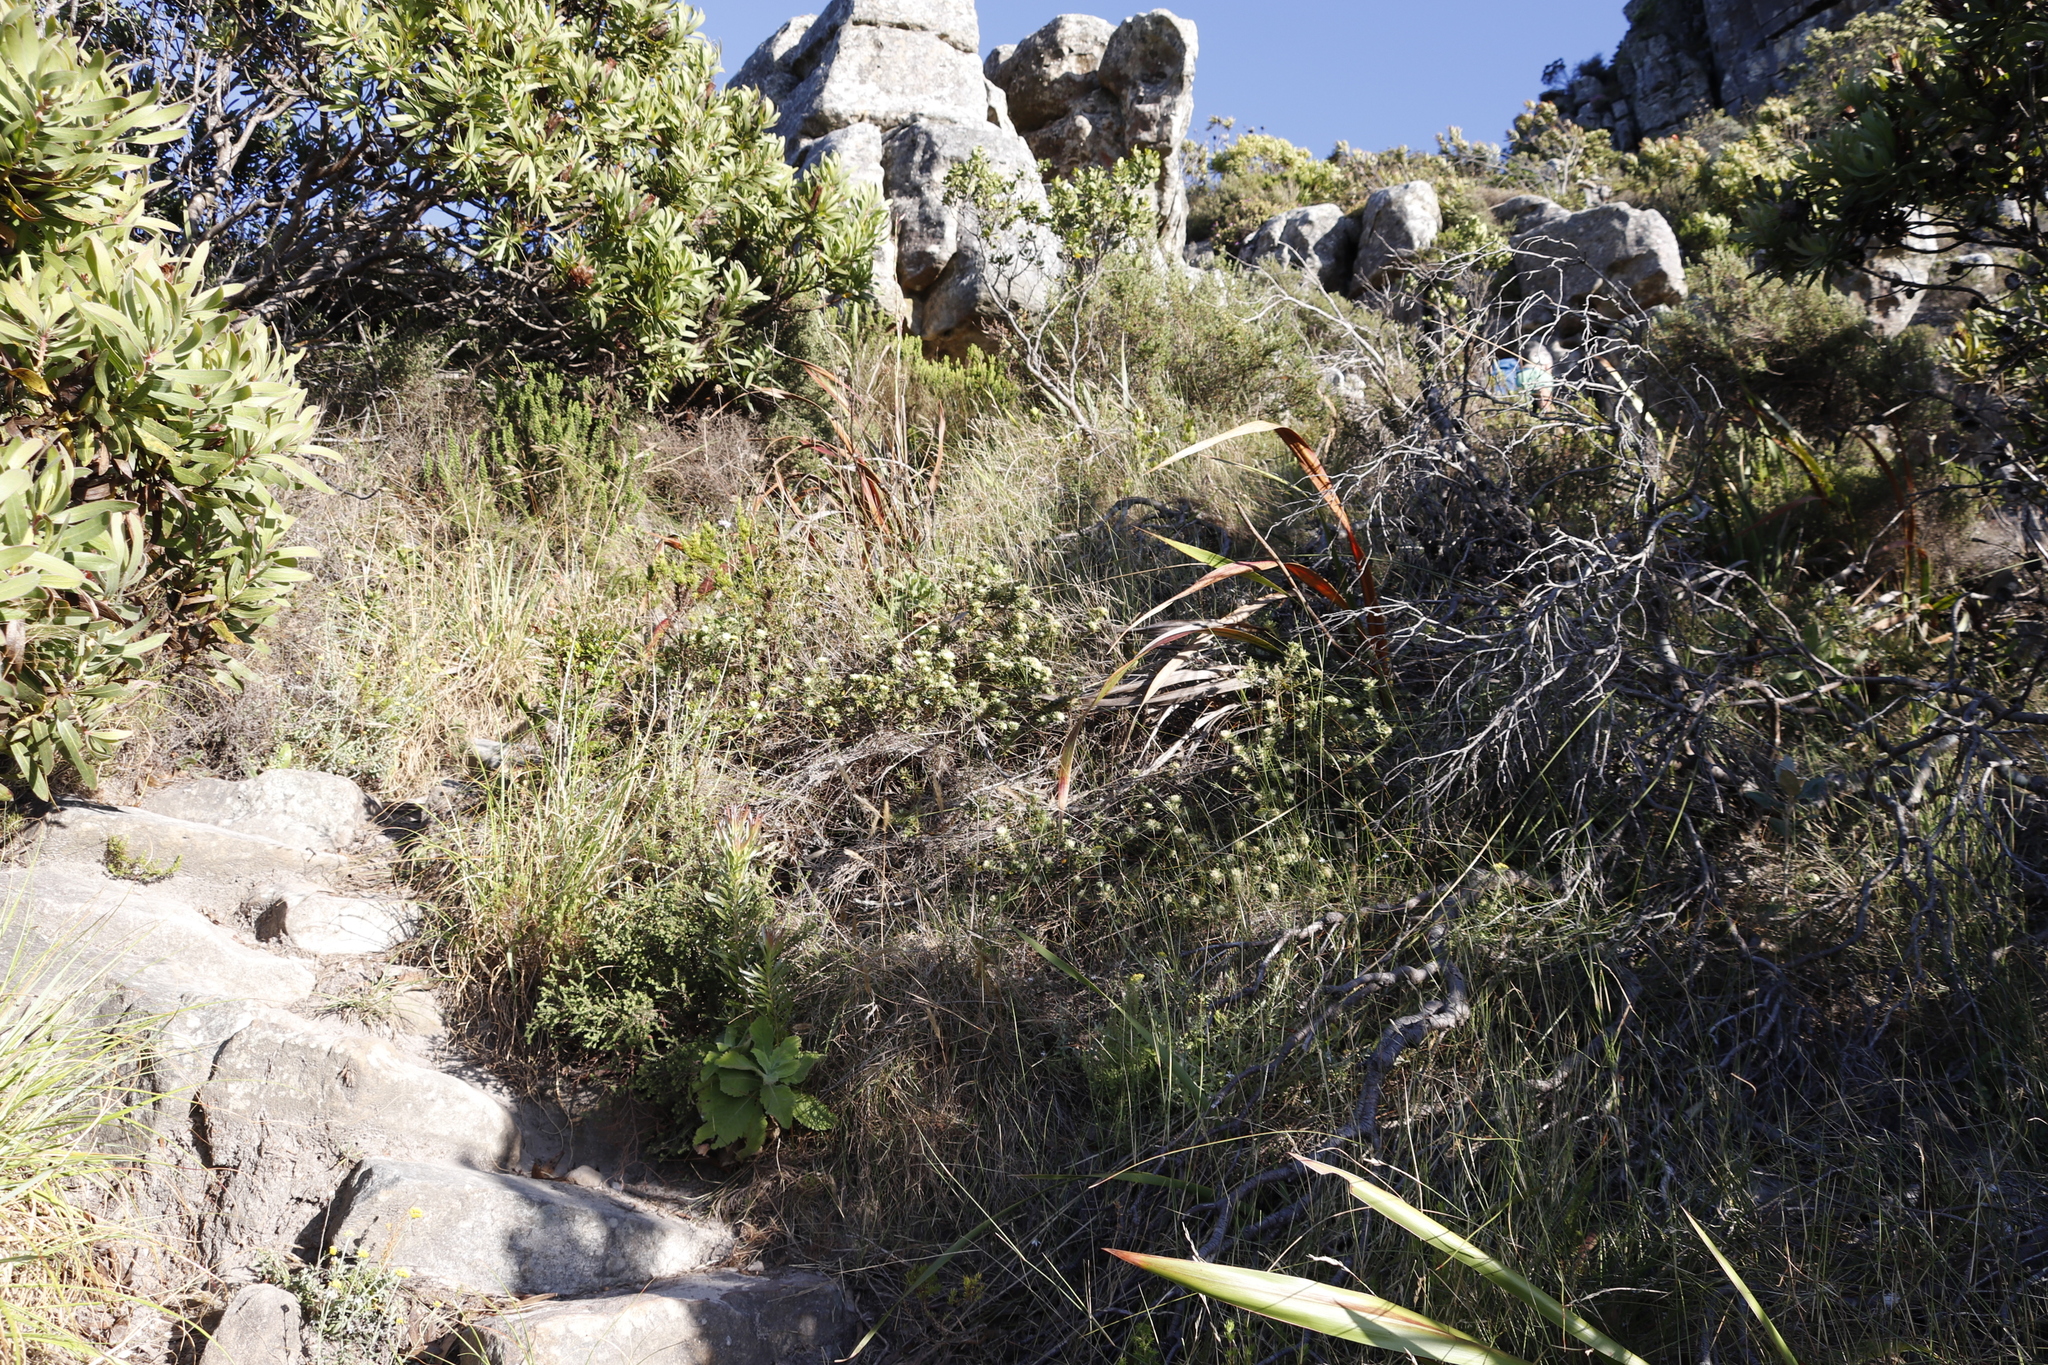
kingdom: Plantae
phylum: Tracheophyta
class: Magnoliopsida
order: Rosales
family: Rhamnaceae
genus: Phylica
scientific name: Phylica dioica
